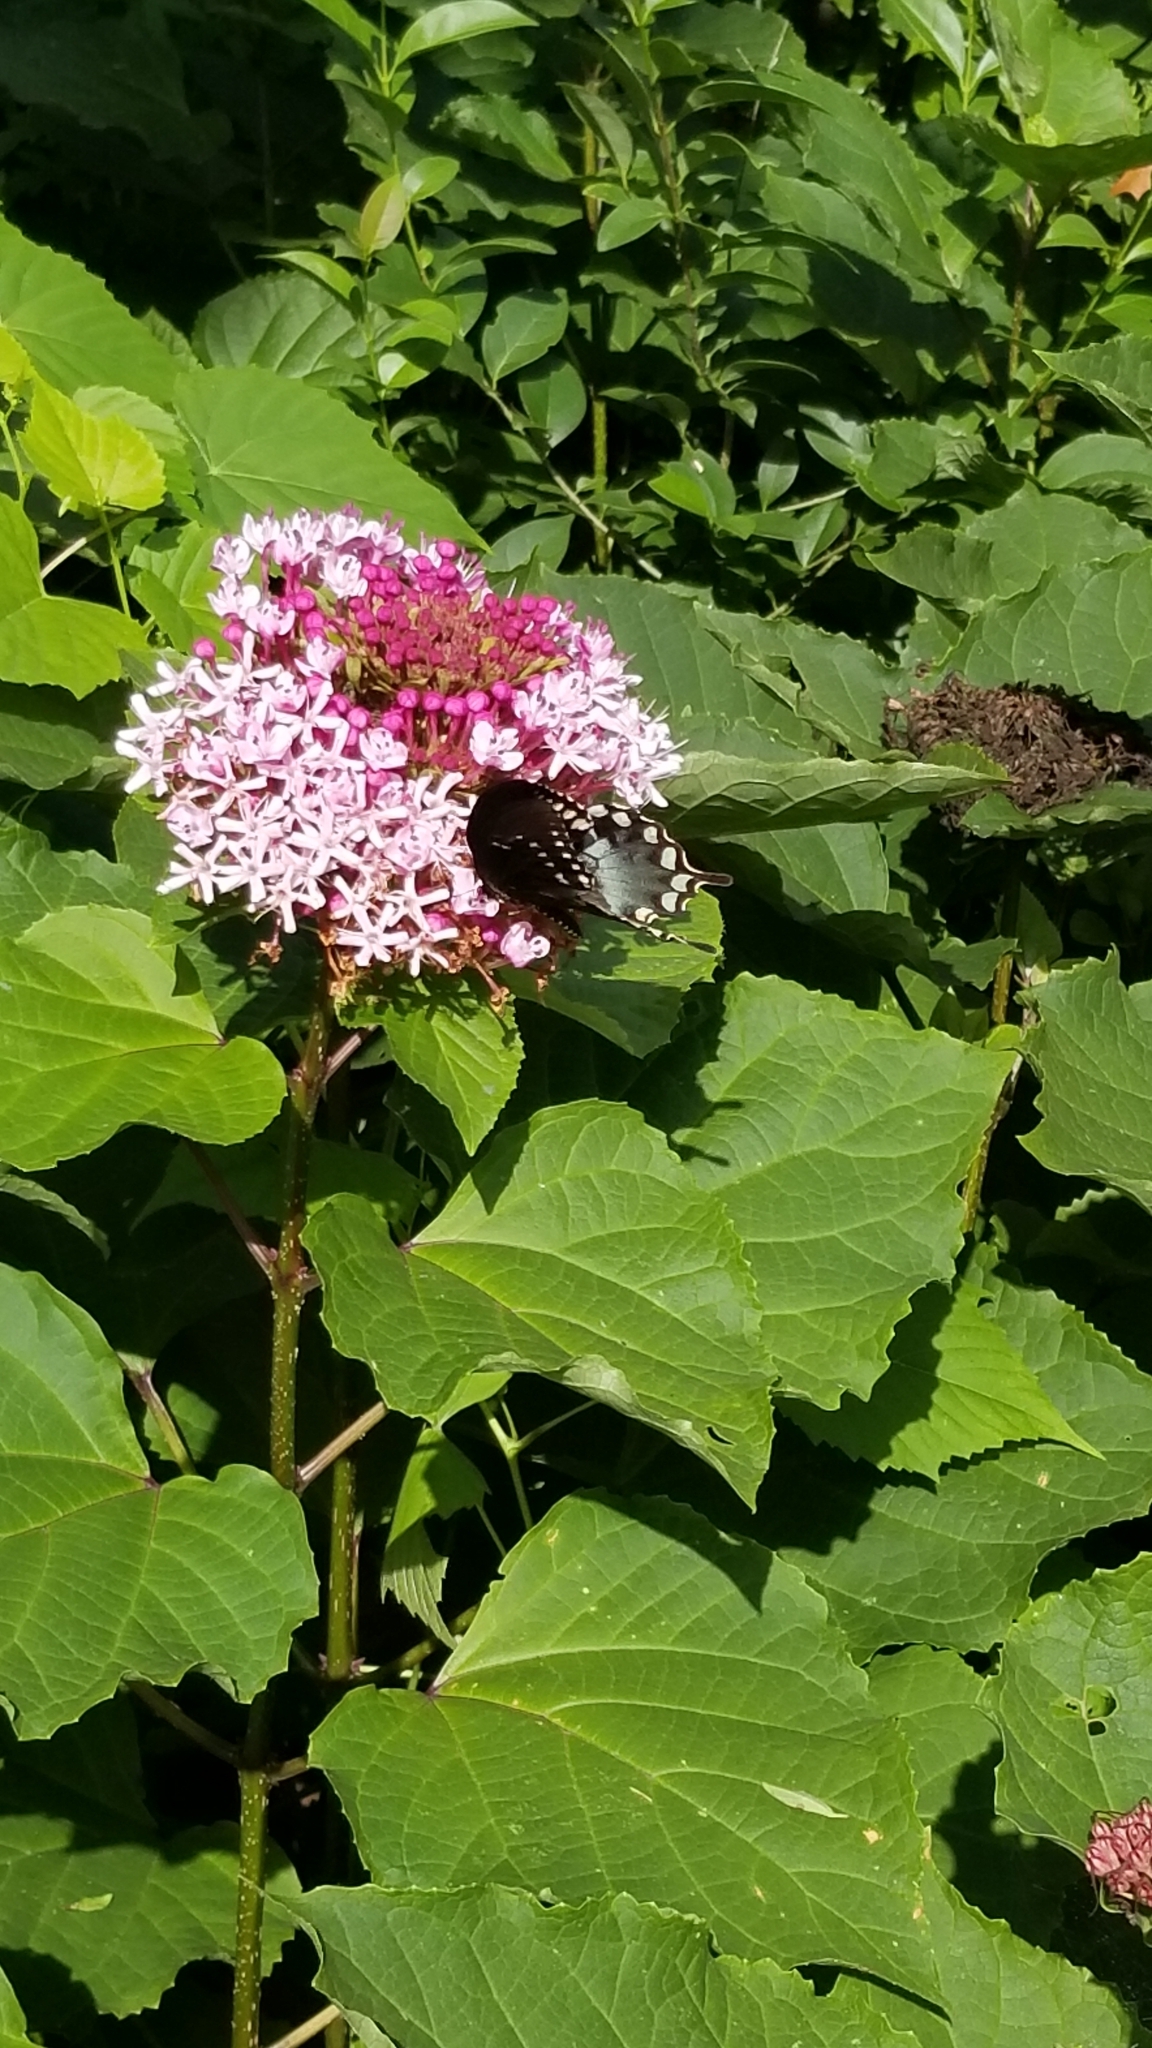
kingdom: Animalia
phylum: Arthropoda
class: Insecta
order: Lepidoptera
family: Papilionidae
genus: Papilio
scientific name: Papilio troilus
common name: Spicebush swallowtail
